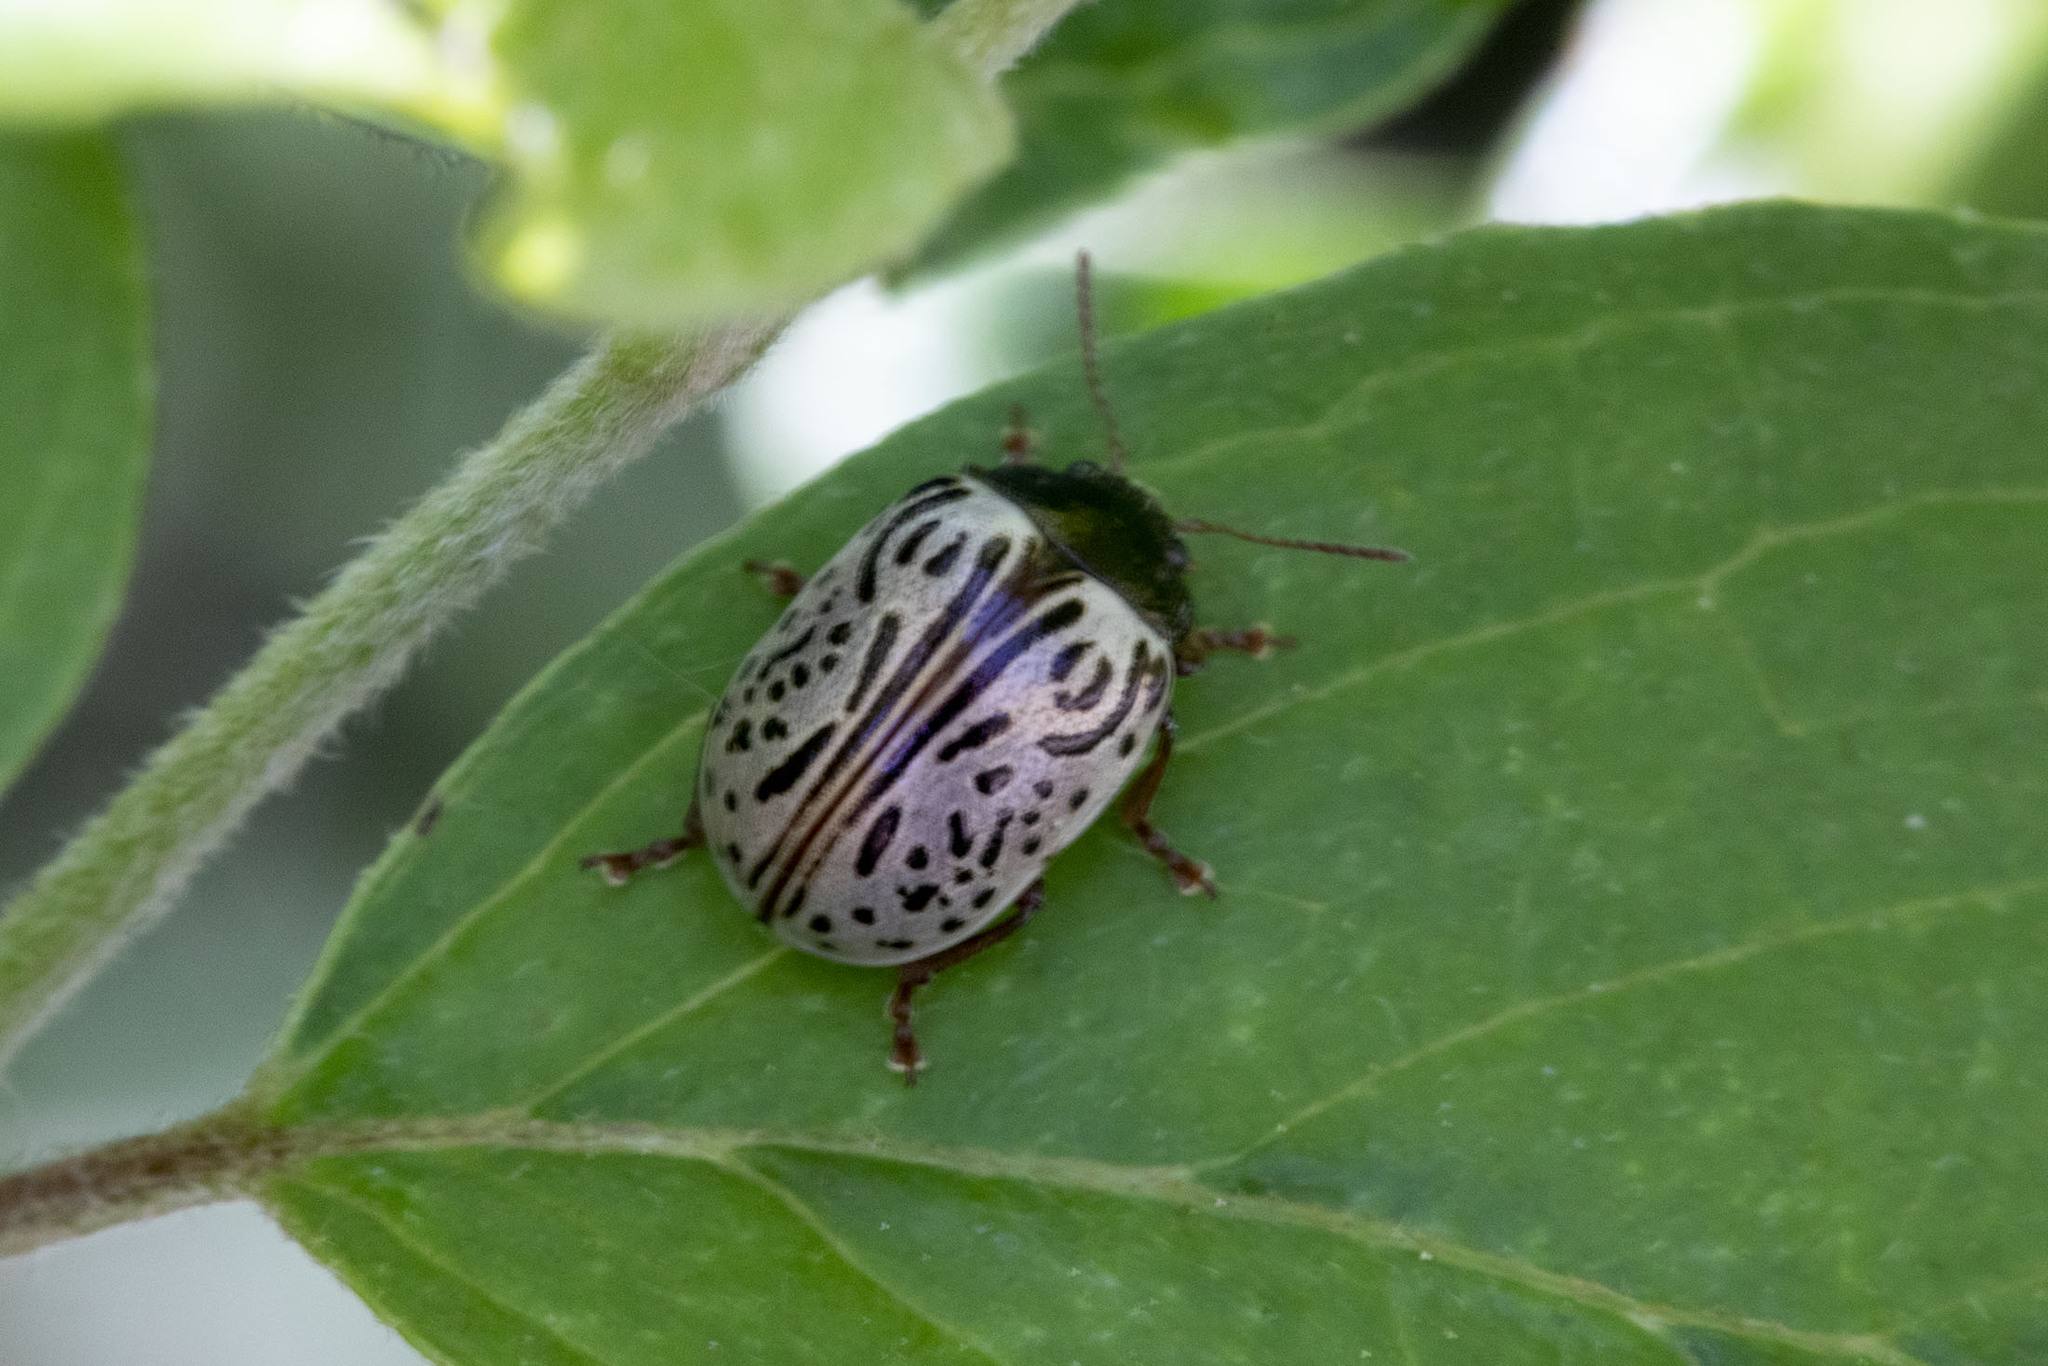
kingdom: Animalia
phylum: Arthropoda
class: Insecta
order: Coleoptera
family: Chrysomelidae
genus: Calligrapha
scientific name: Calligrapha philadelphica
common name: Dogwood leaf beetle
